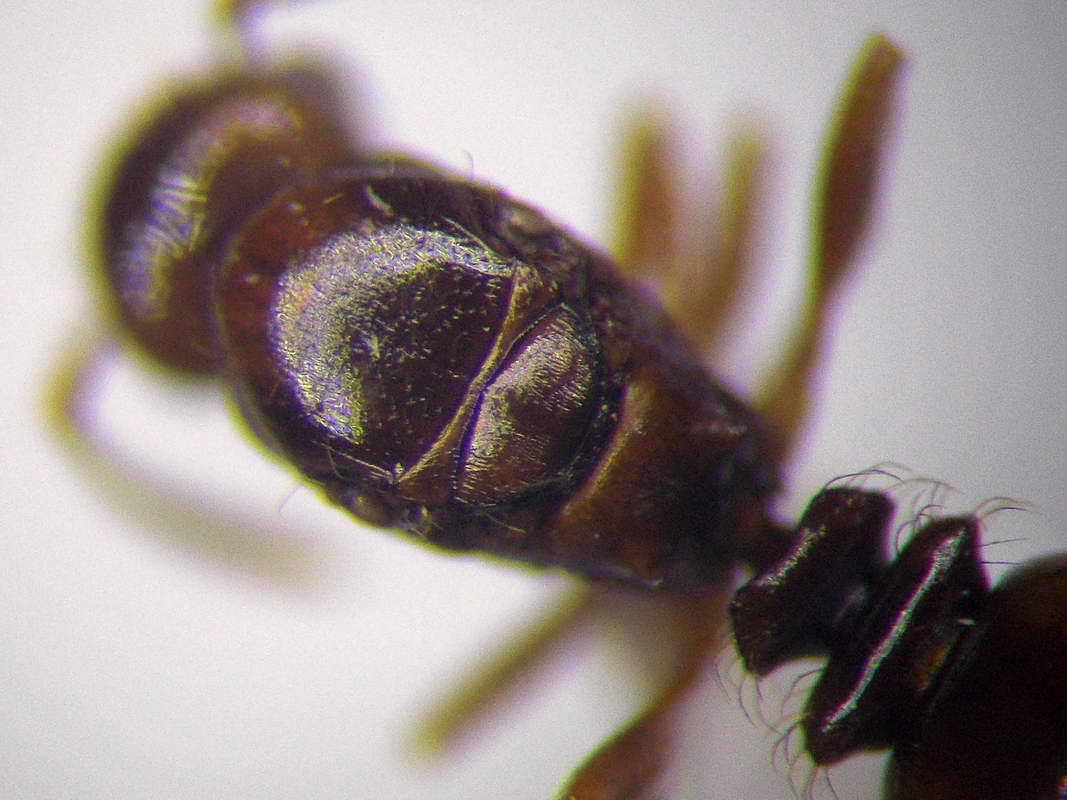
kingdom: Animalia
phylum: Arthropoda
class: Insecta
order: Hymenoptera
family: Formicidae
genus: Tetramorium
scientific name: Tetramorium ferox
